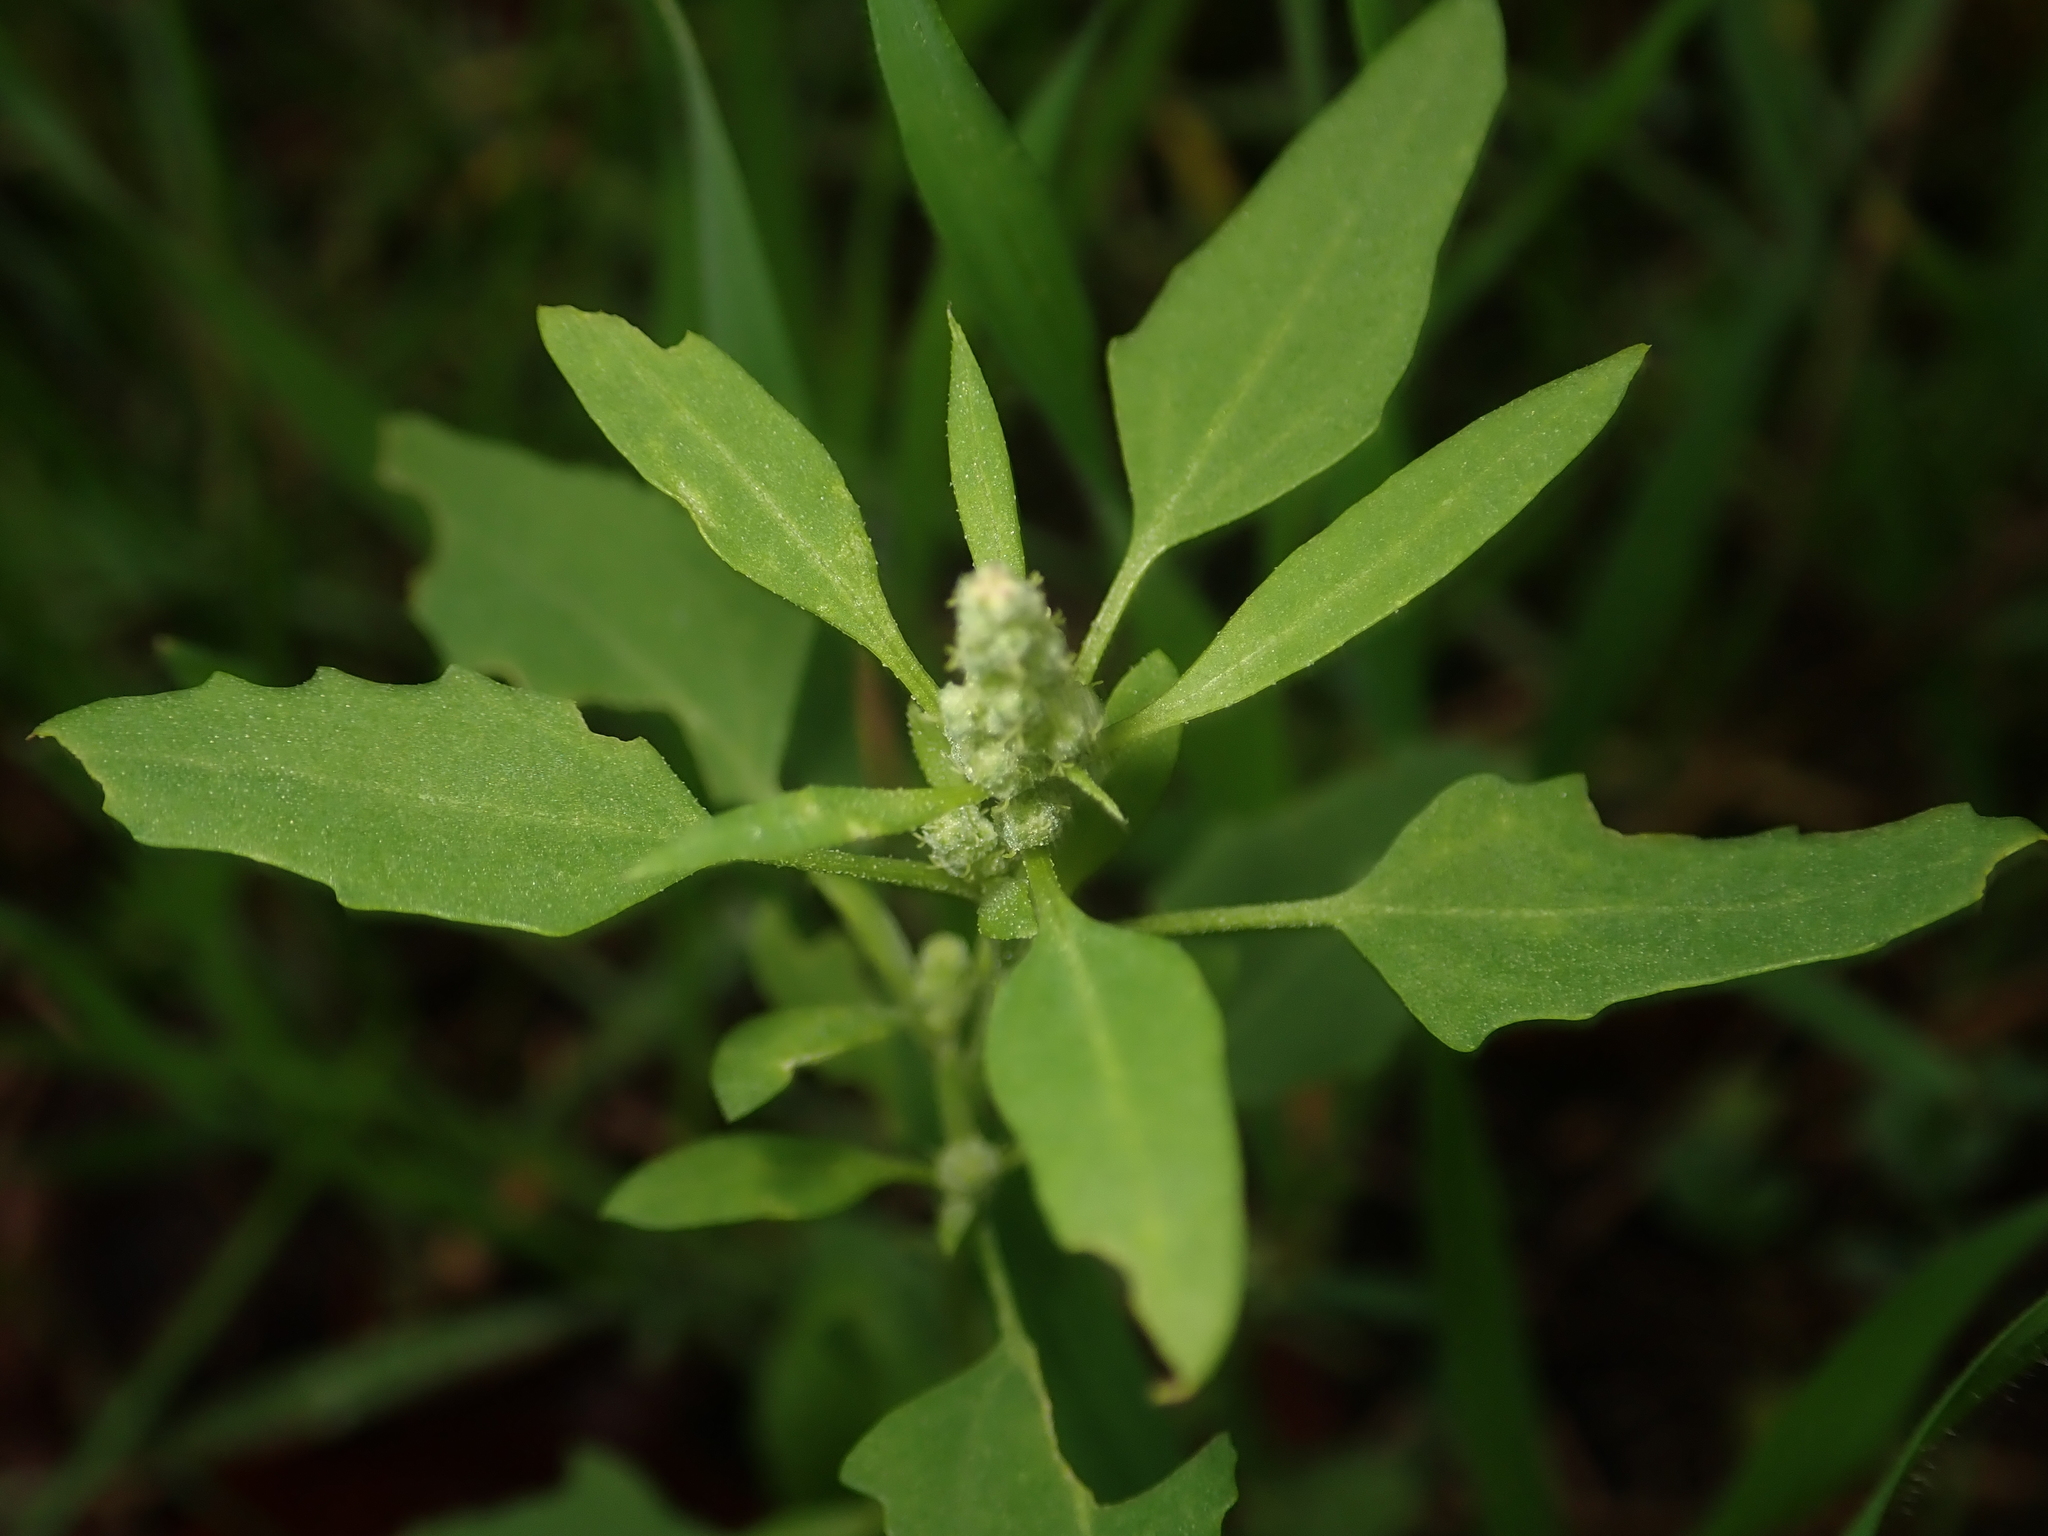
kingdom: Plantae
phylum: Tracheophyta
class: Magnoliopsida
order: Caryophyllales
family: Amaranthaceae
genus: Chenopodium
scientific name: Chenopodium album
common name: Fat-hen
